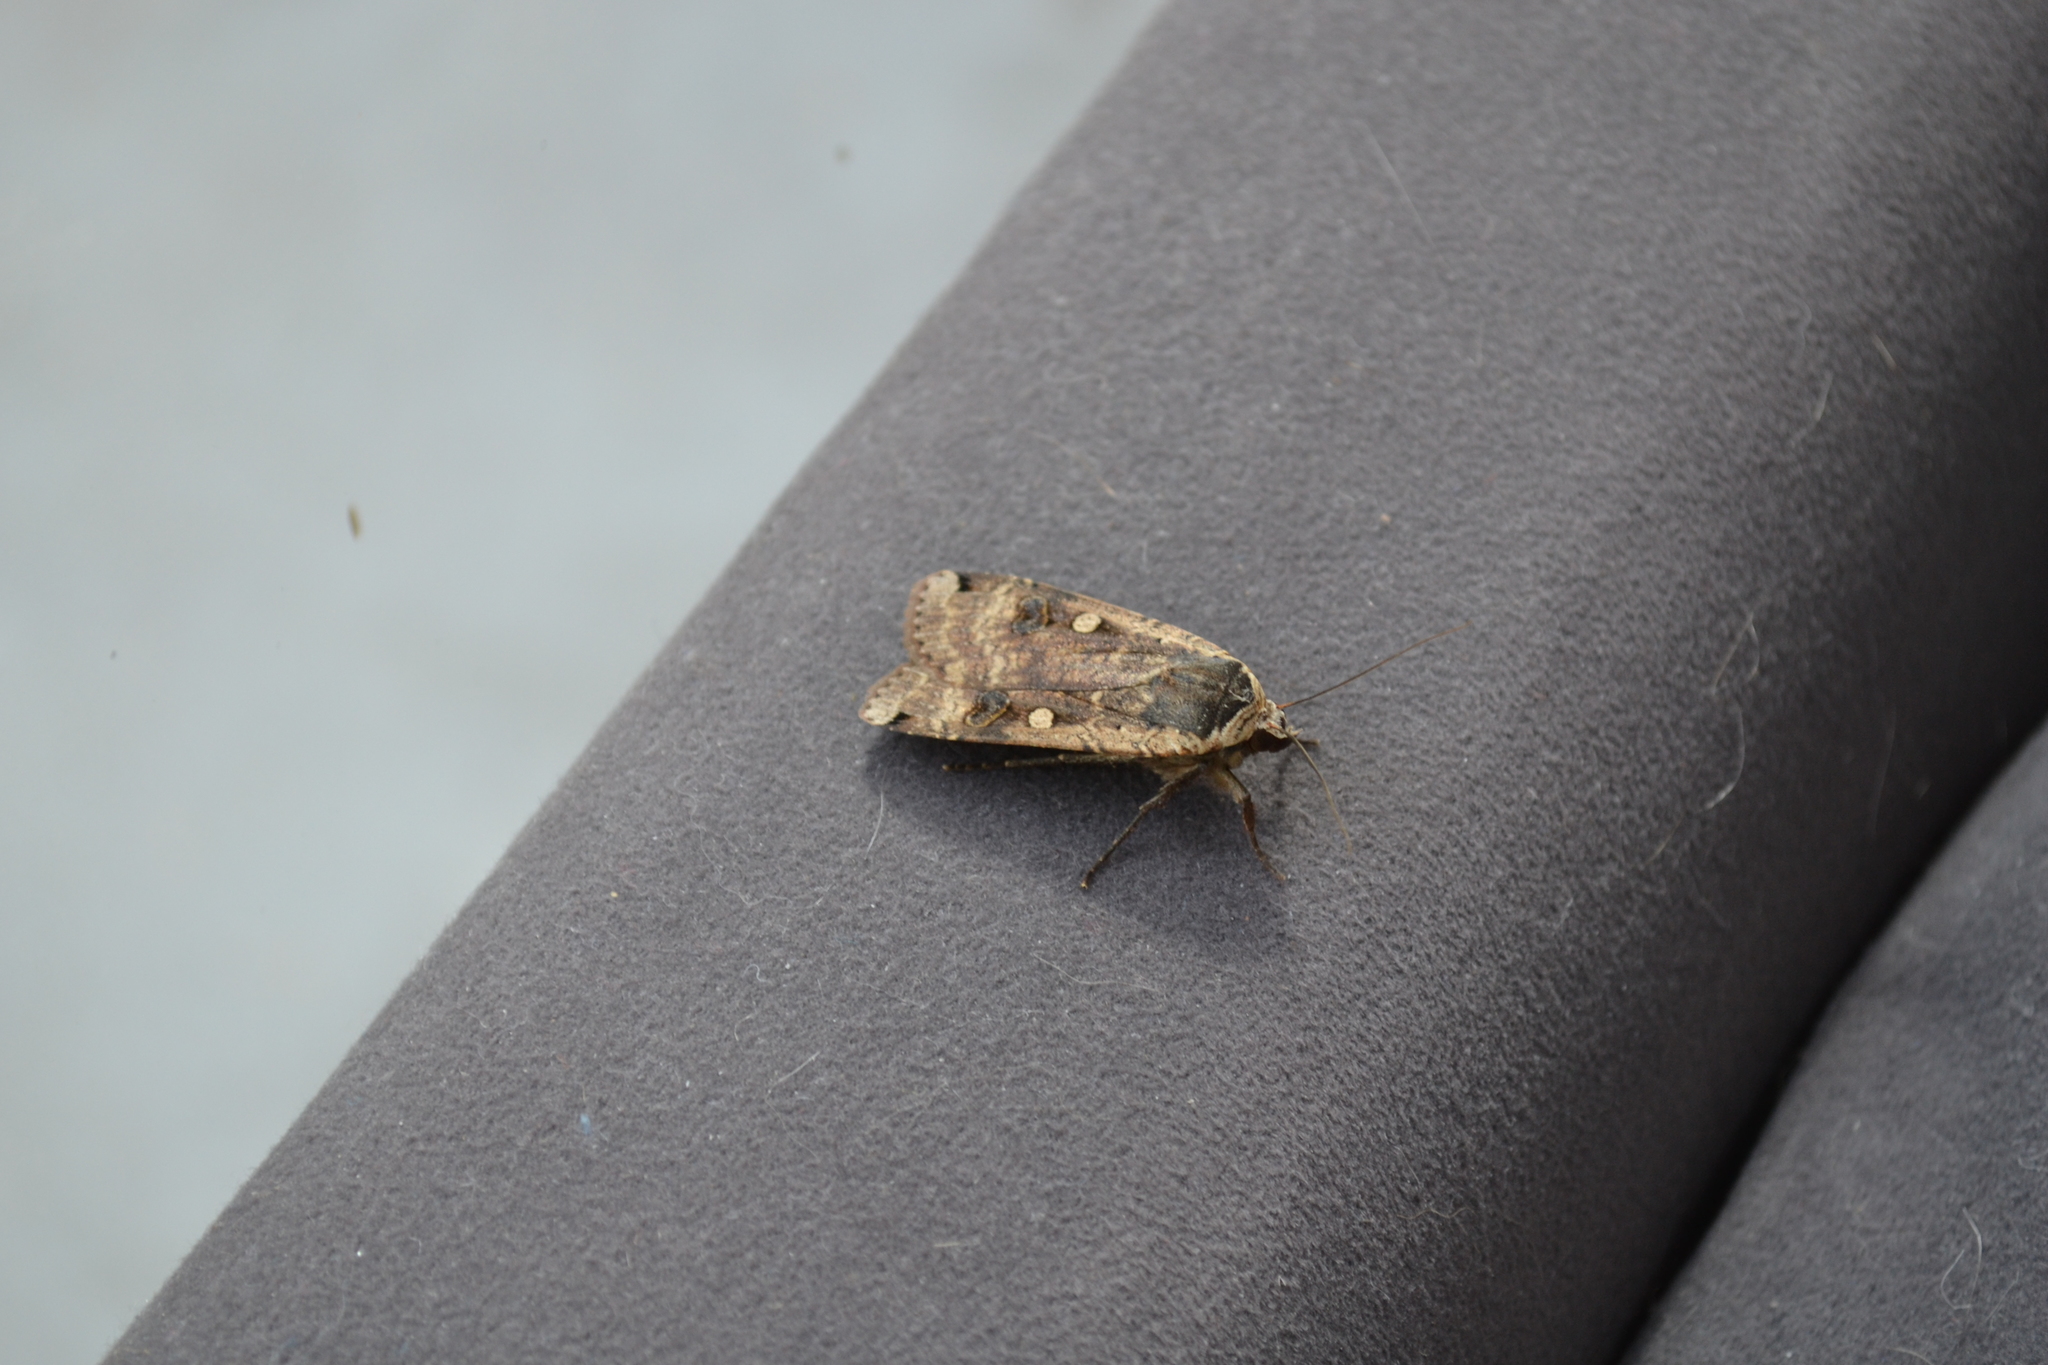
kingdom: Animalia
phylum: Arthropoda
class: Insecta
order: Lepidoptera
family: Noctuidae
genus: Noctua
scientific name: Noctua pronuba
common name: Large yellow underwing
